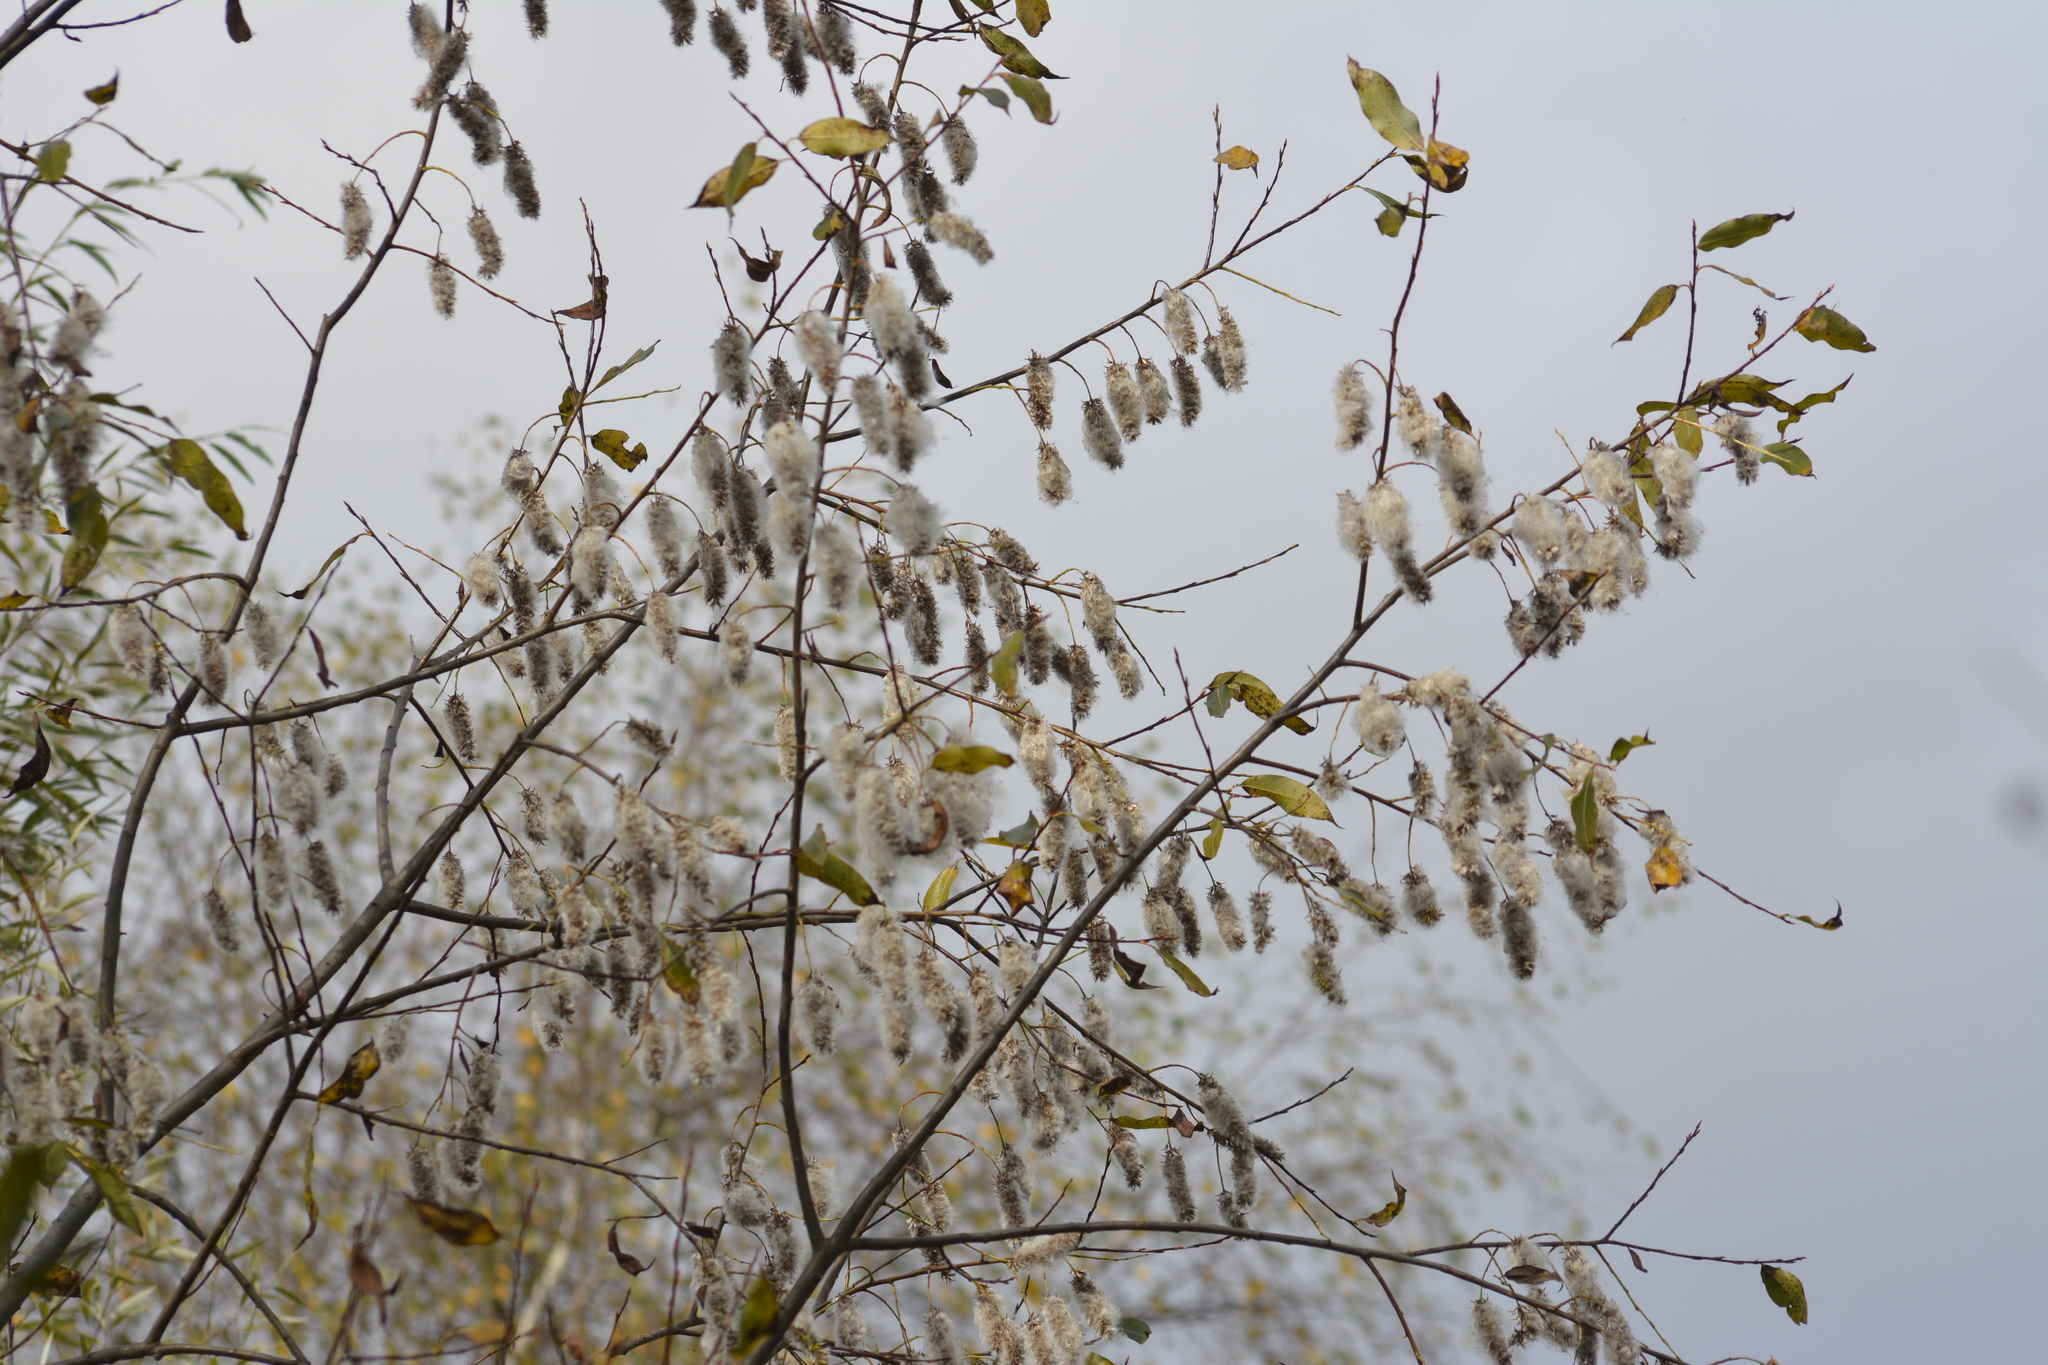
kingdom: Plantae
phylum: Tracheophyta
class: Magnoliopsida
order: Malpighiales
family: Salicaceae
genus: Salix
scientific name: Salix pentandra
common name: Bay willow
